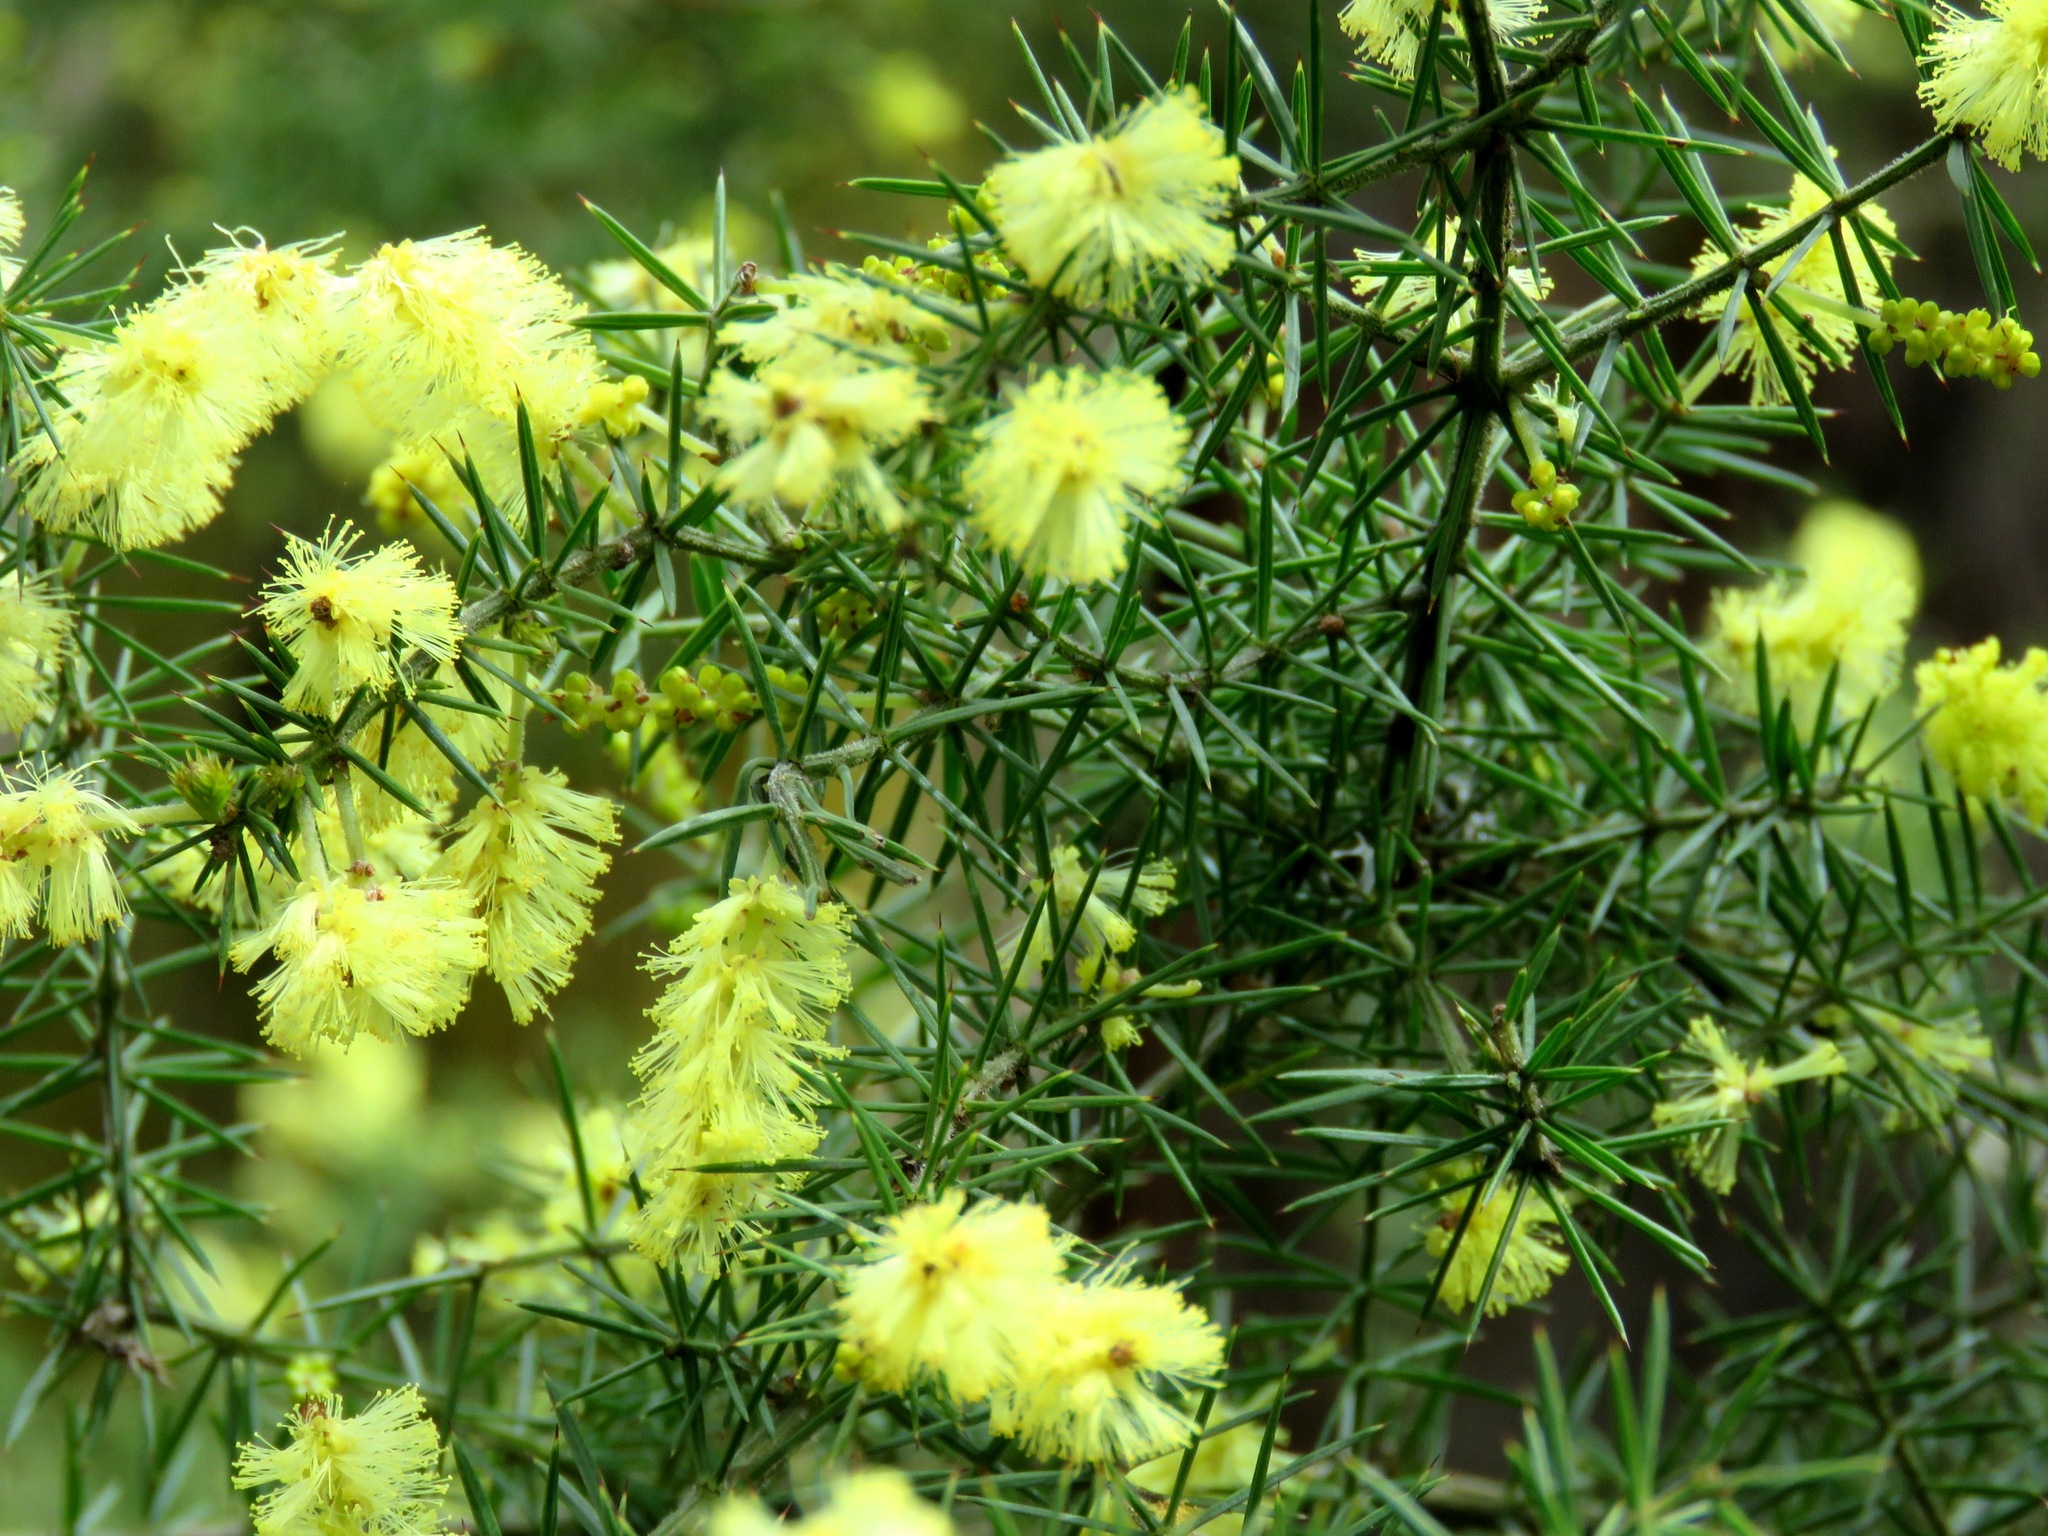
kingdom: Plantae
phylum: Tracheophyta
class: Magnoliopsida
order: Fabales
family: Fabaceae
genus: Acacia
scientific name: Acacia verticillata
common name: Prickly moses
